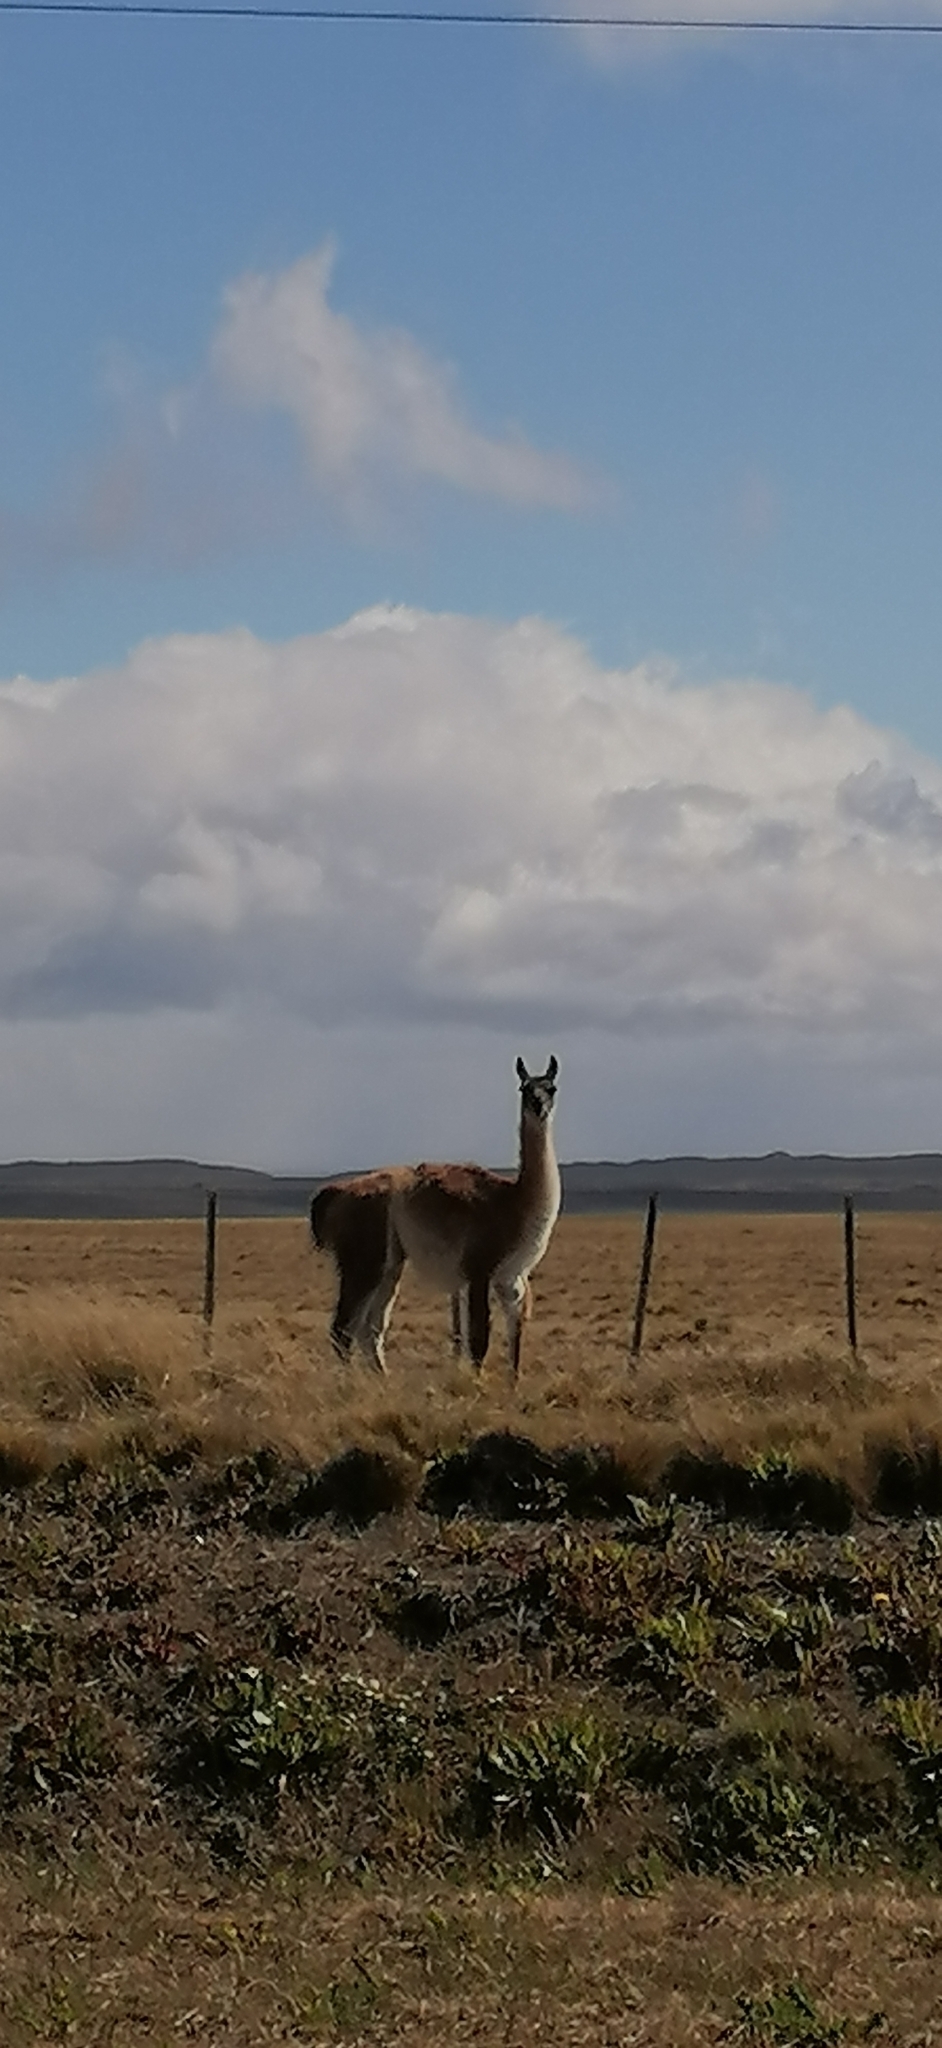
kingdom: Animalia
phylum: Chordata
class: Mammalia
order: Artiodactyla
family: Camelidae
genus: Lama
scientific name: Lama glama
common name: Llama
